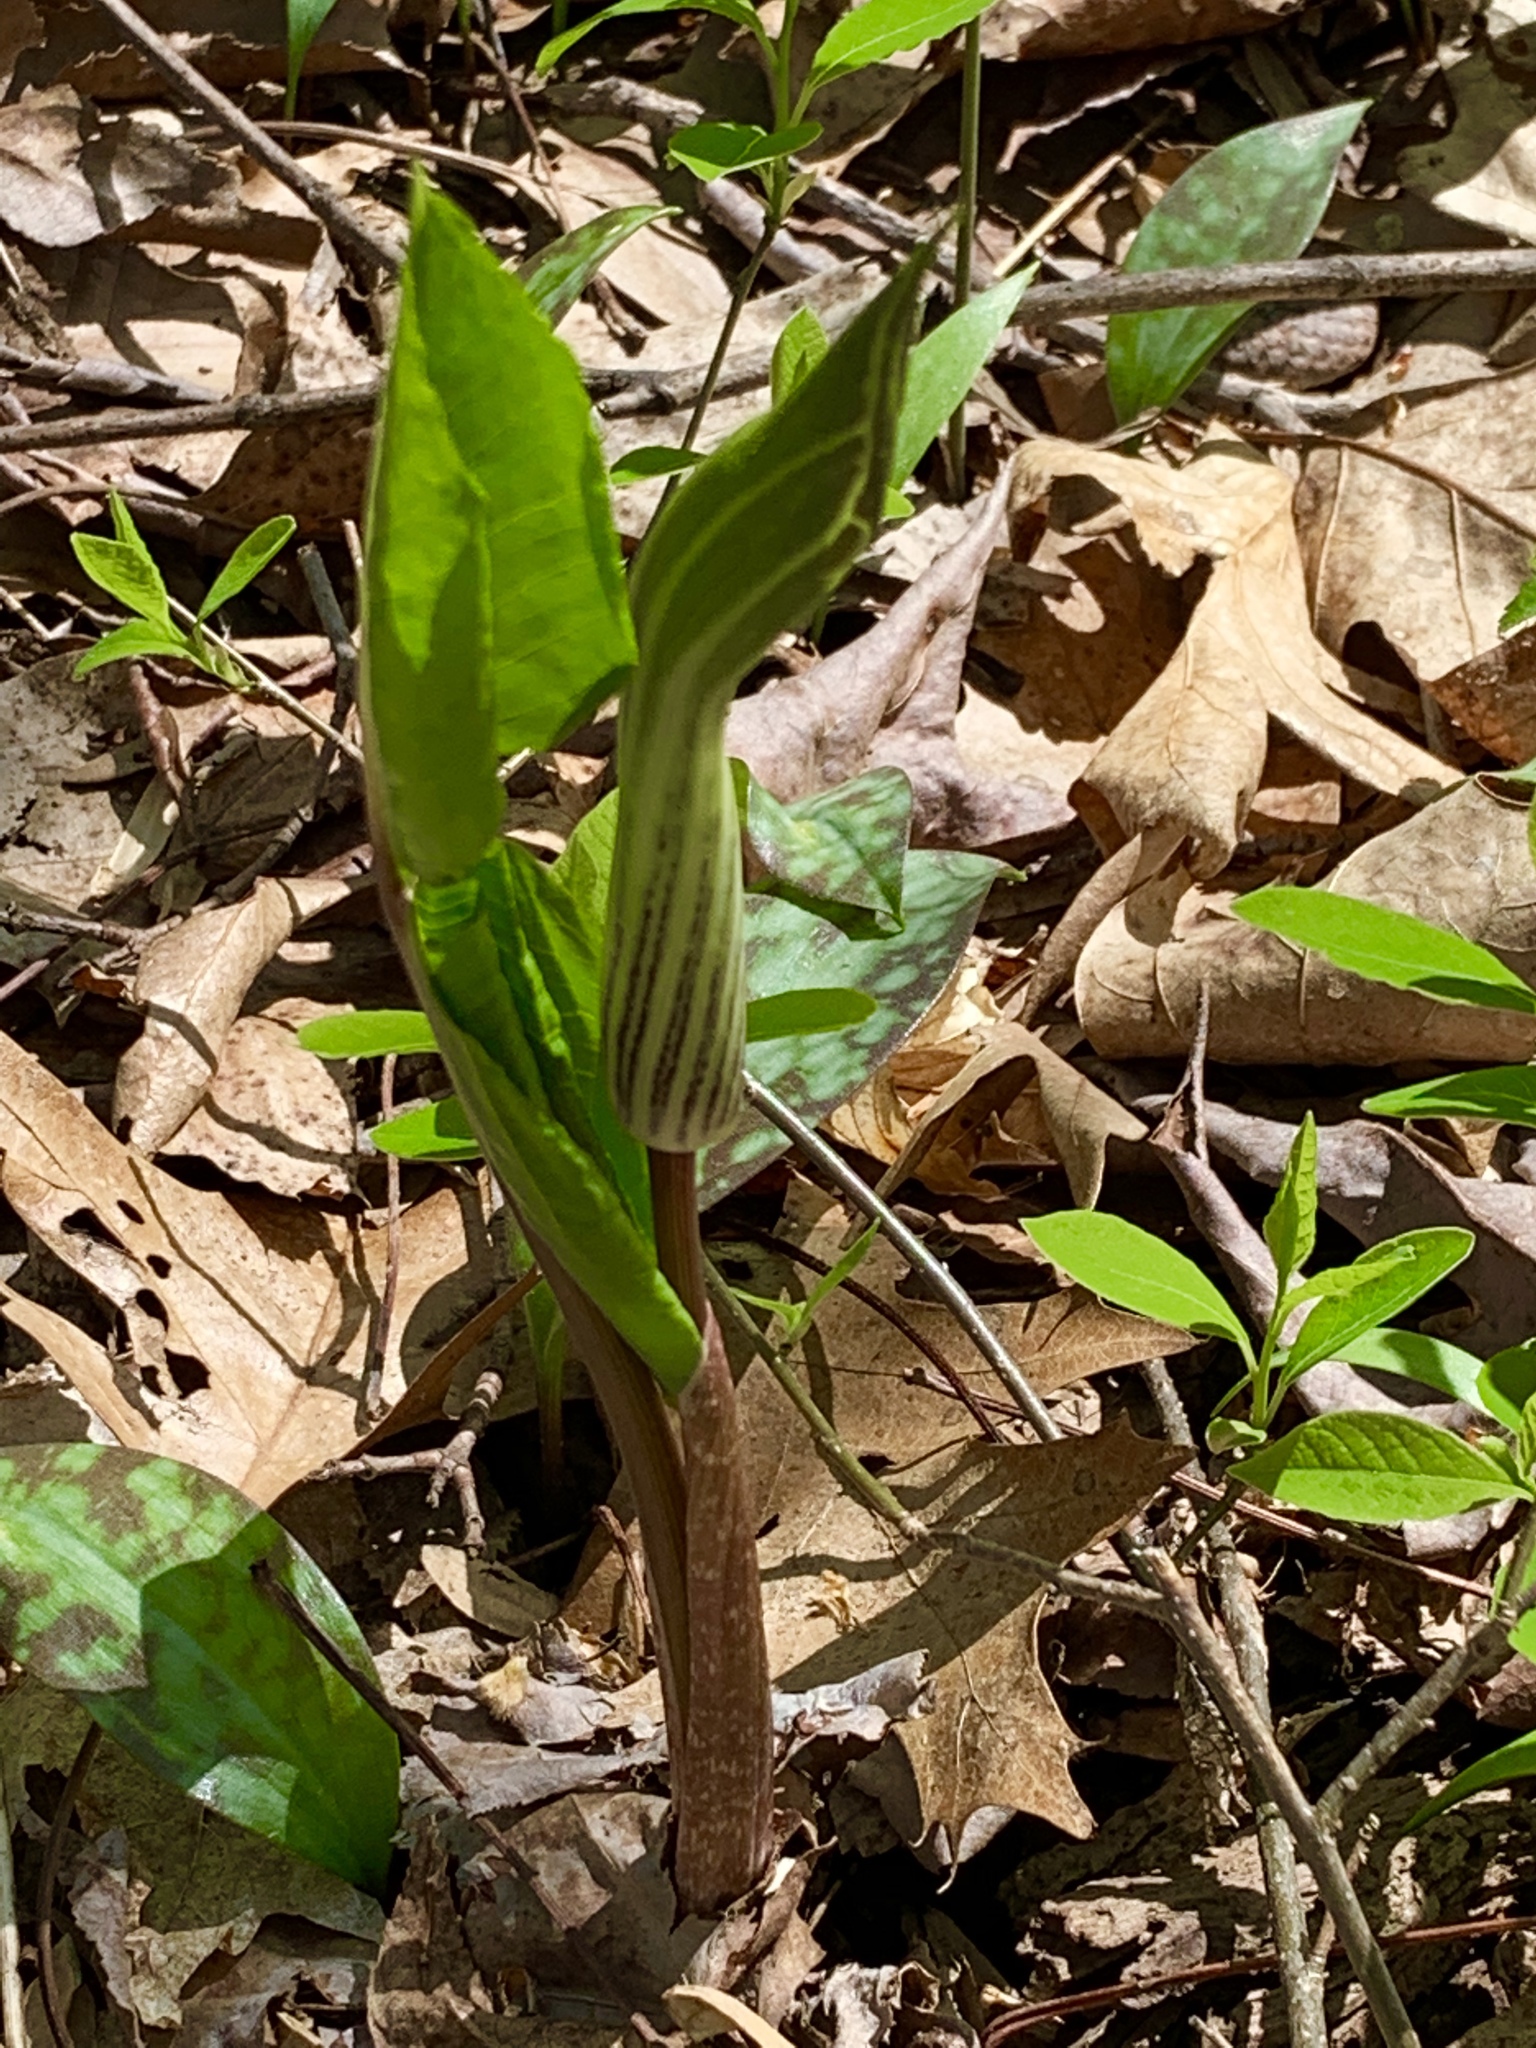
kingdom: Plantae
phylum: Tracheophyta
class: Liliopsida
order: Alismatales
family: Araceae
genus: Arisaema
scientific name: Arisaema triphyllum
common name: Jack-in-the-pulpit
